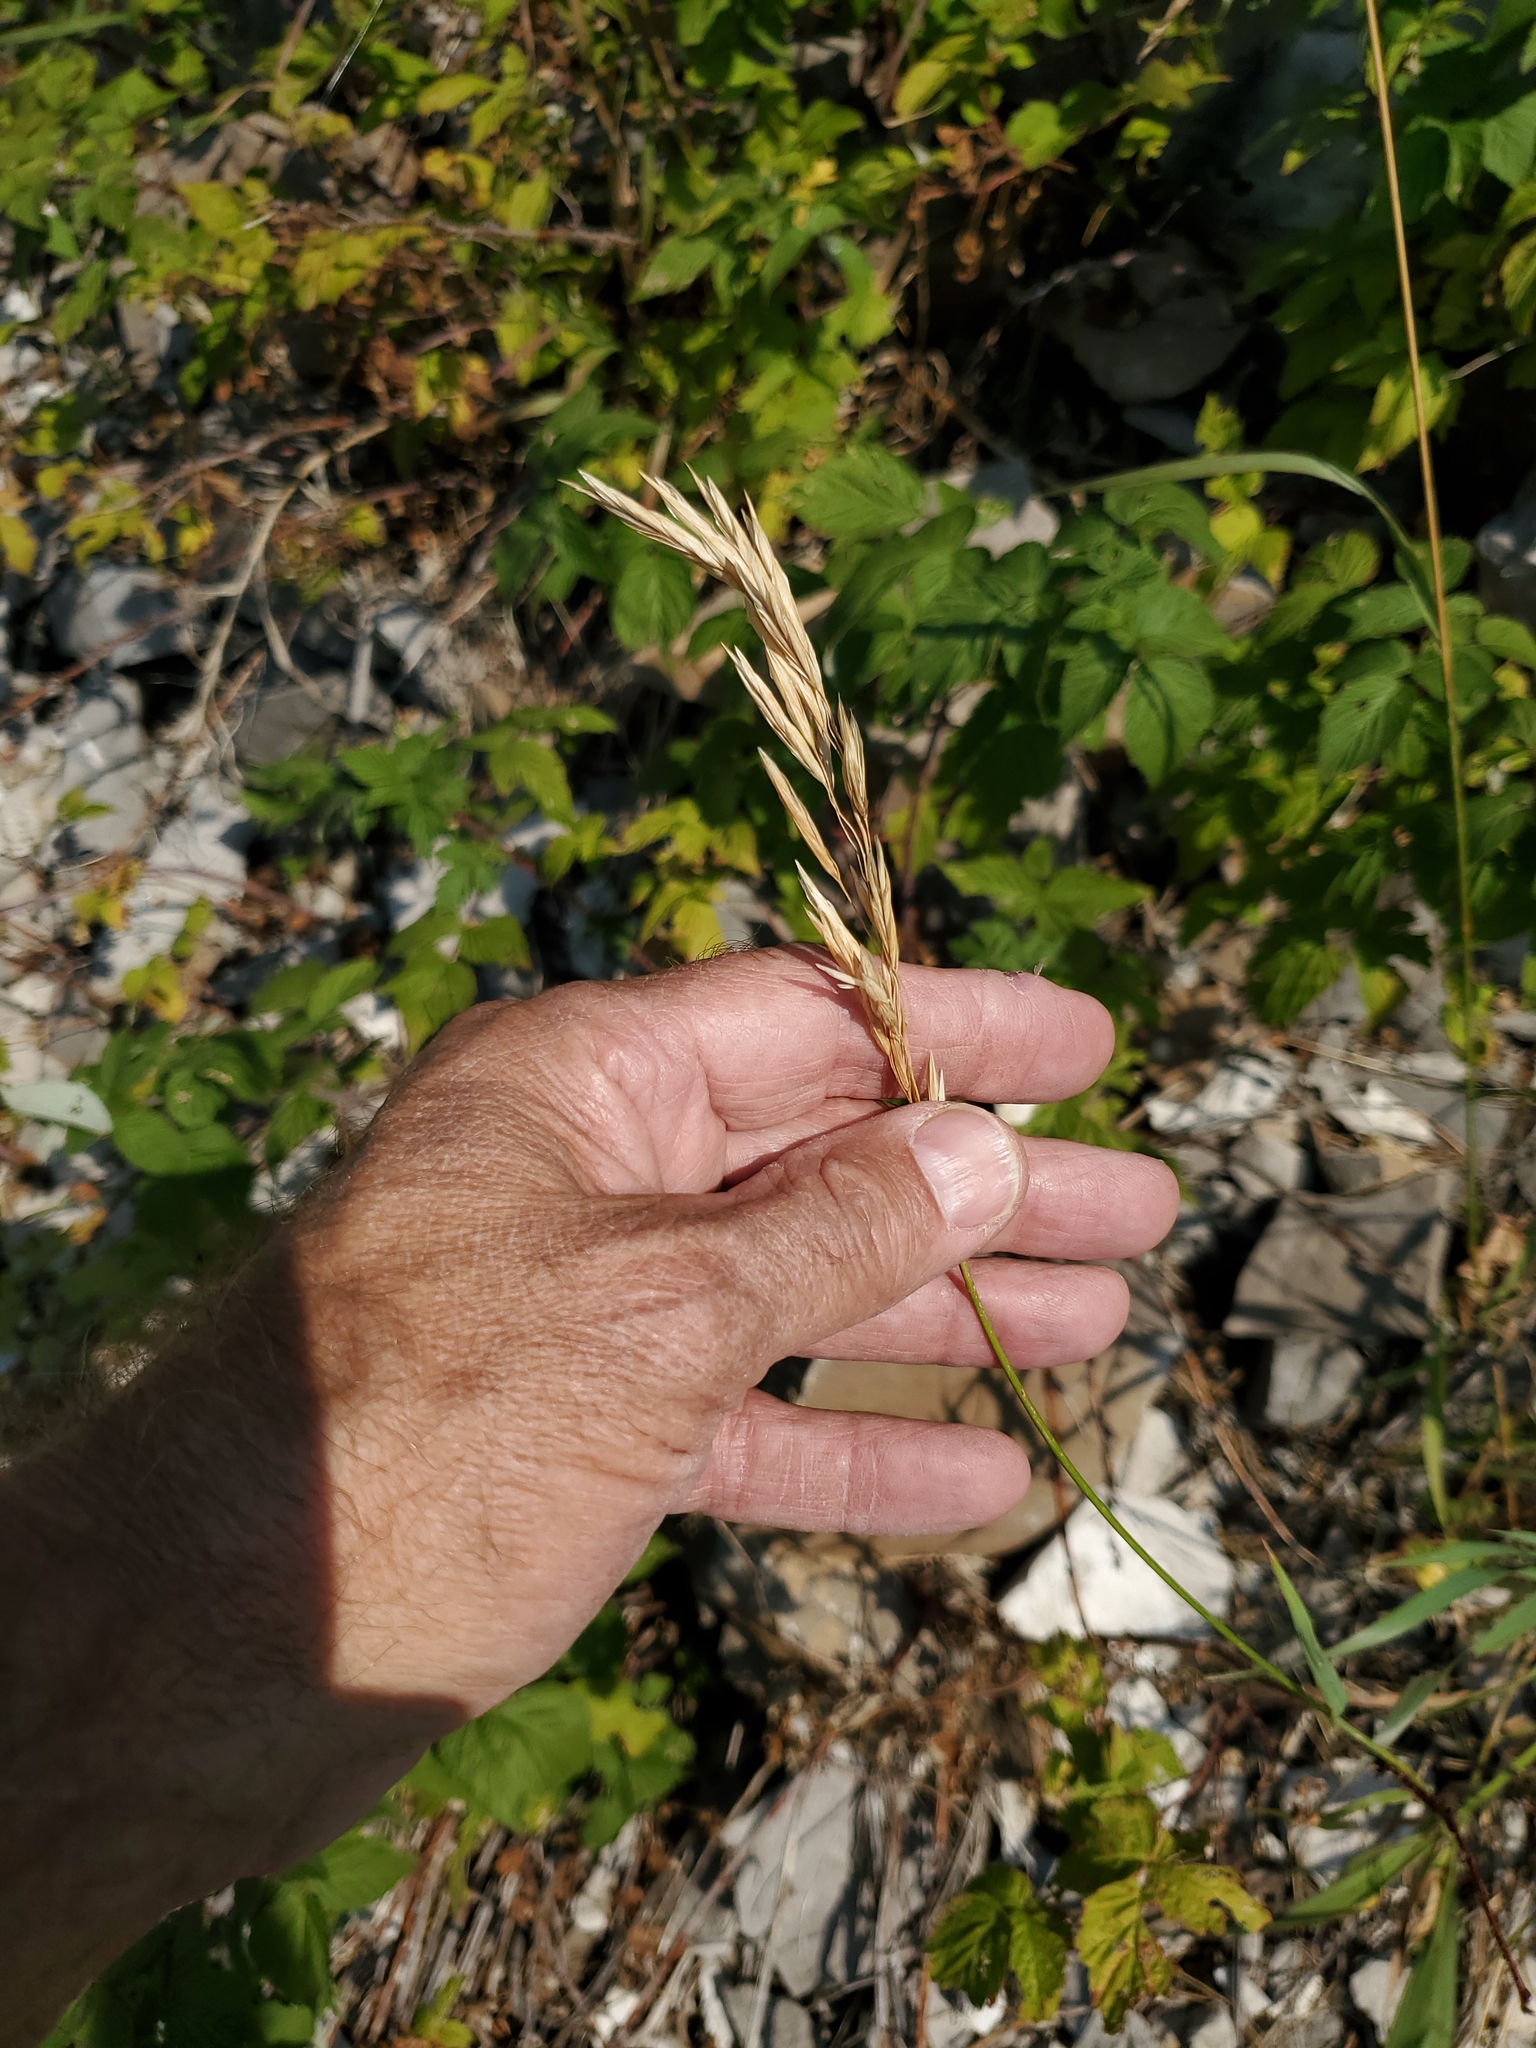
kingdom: Plantae
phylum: Tracheophyta
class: Liliopsida
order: Poales
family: Poaceae
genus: Bromus
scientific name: Bromus inermis
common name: Smooth brome
